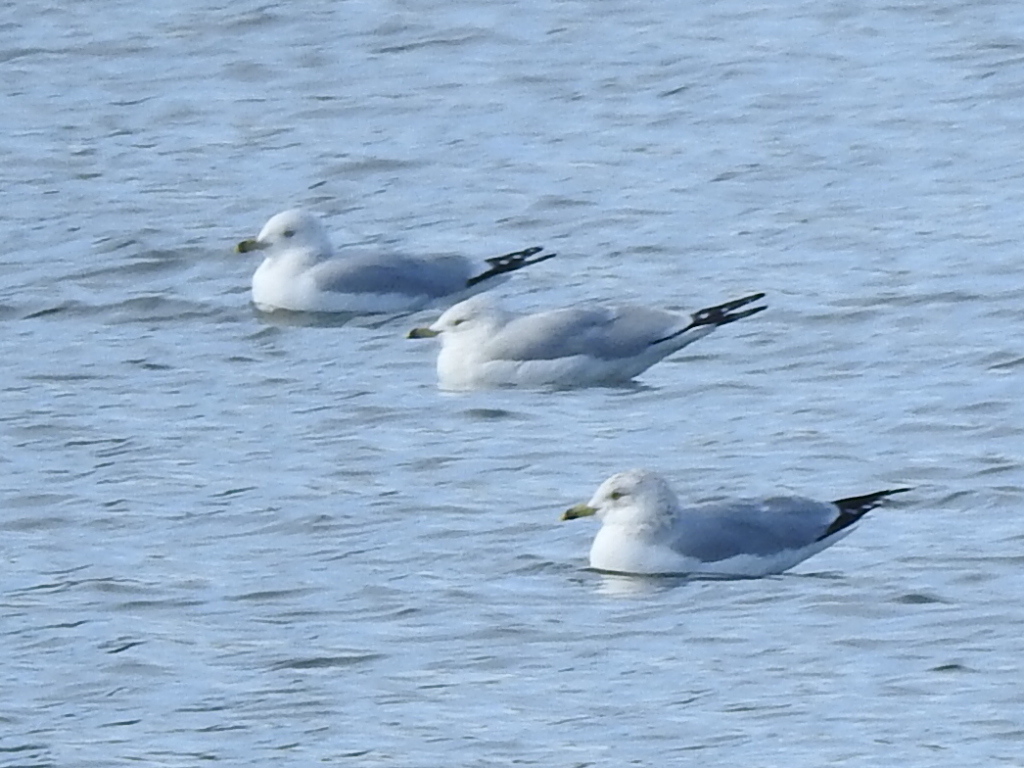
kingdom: Animalia
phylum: Chordata
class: Aves
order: Charadriiformes
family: Laridae
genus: Larus
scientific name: Larus delawarensis
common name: Ring-billed gull
